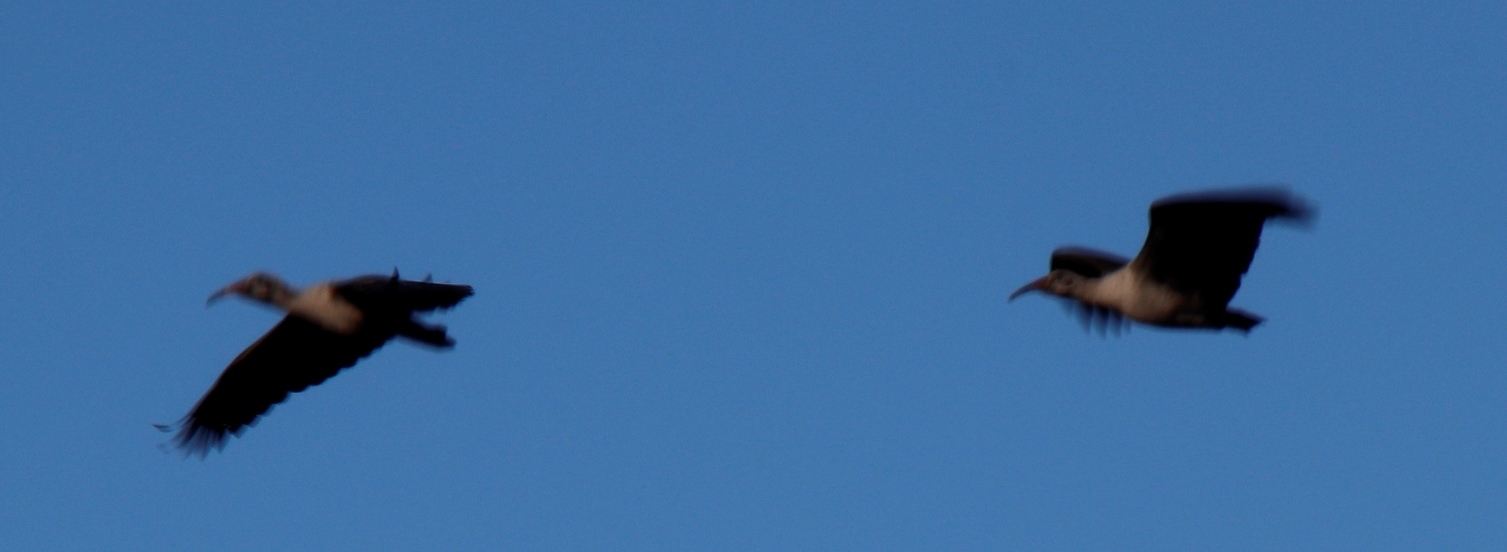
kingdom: Animalia
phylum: Chordata
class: Aves
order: Pelecaniformes
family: Threskiornithidae
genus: Bostrychia
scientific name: Bostrychia hagedash
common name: Hadada ibis
